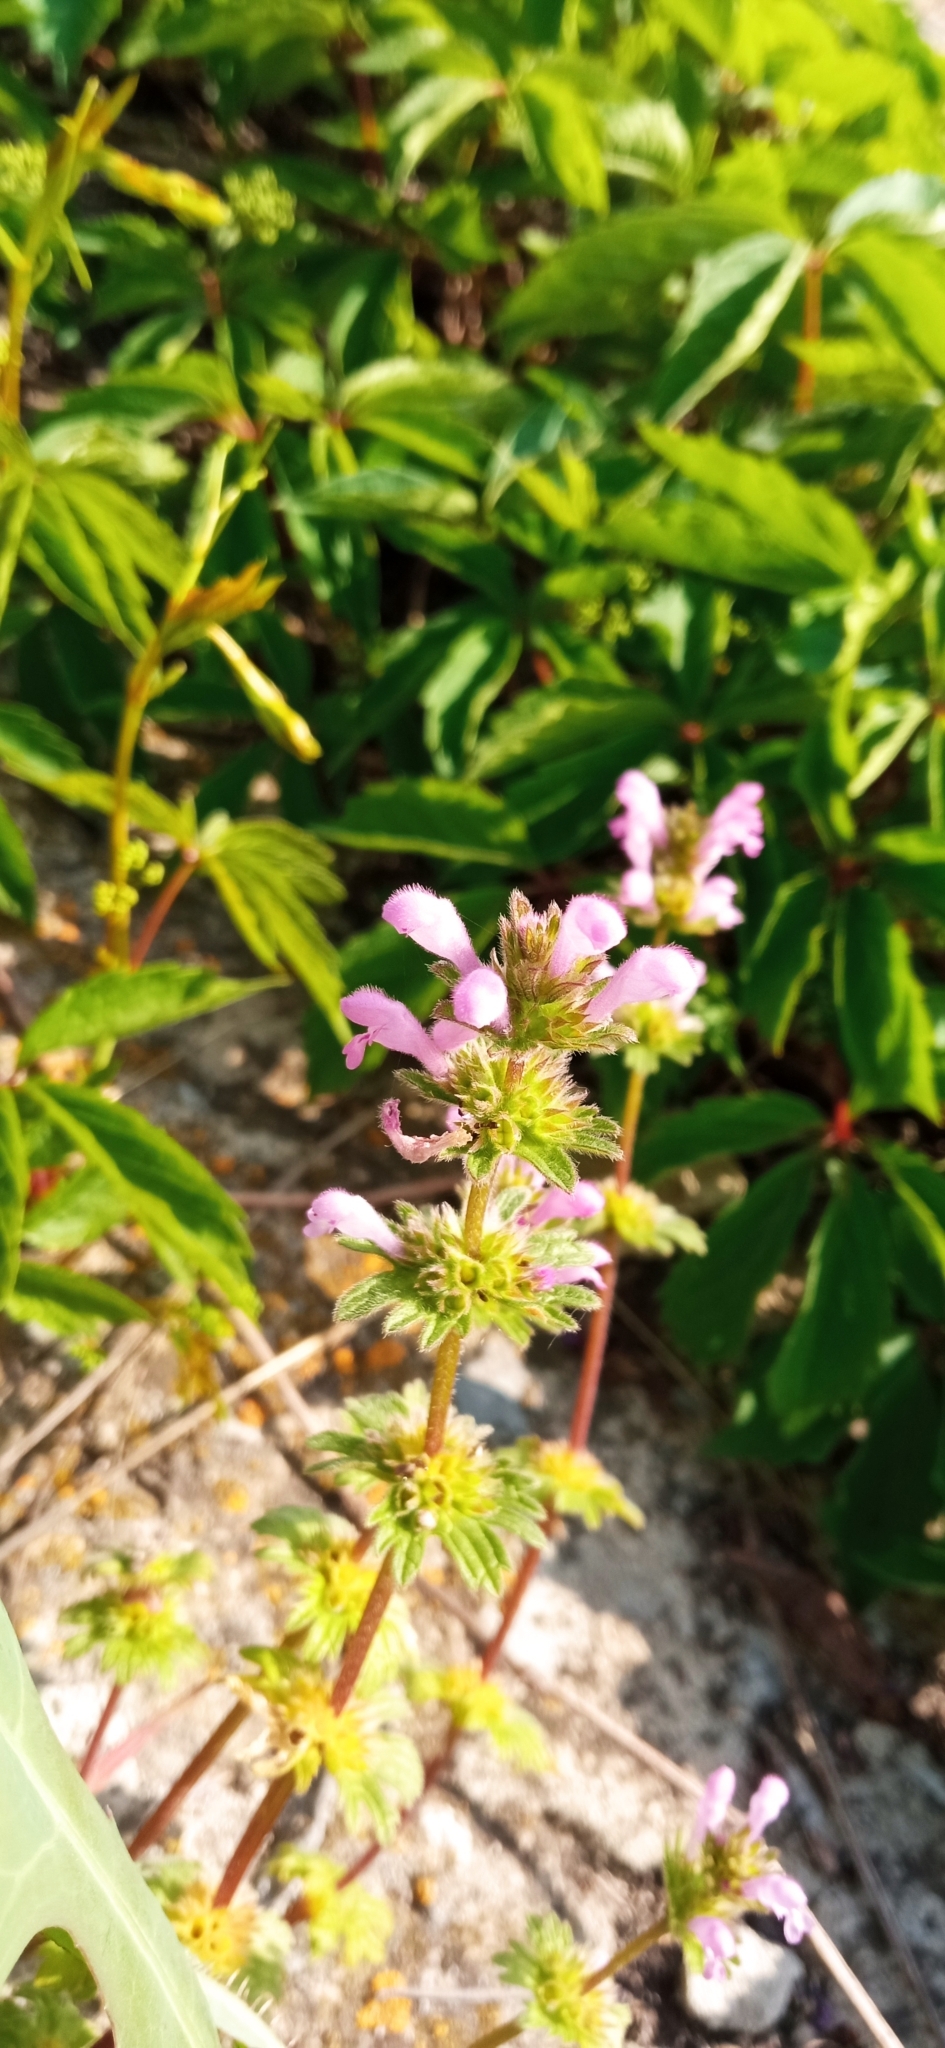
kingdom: Plantae
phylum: Tracheophyta
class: Magnoliopsida
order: Lamiales
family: Lamiaceae
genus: Lamium
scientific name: Lamium amplexicaule
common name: Henbit dead-nettle
